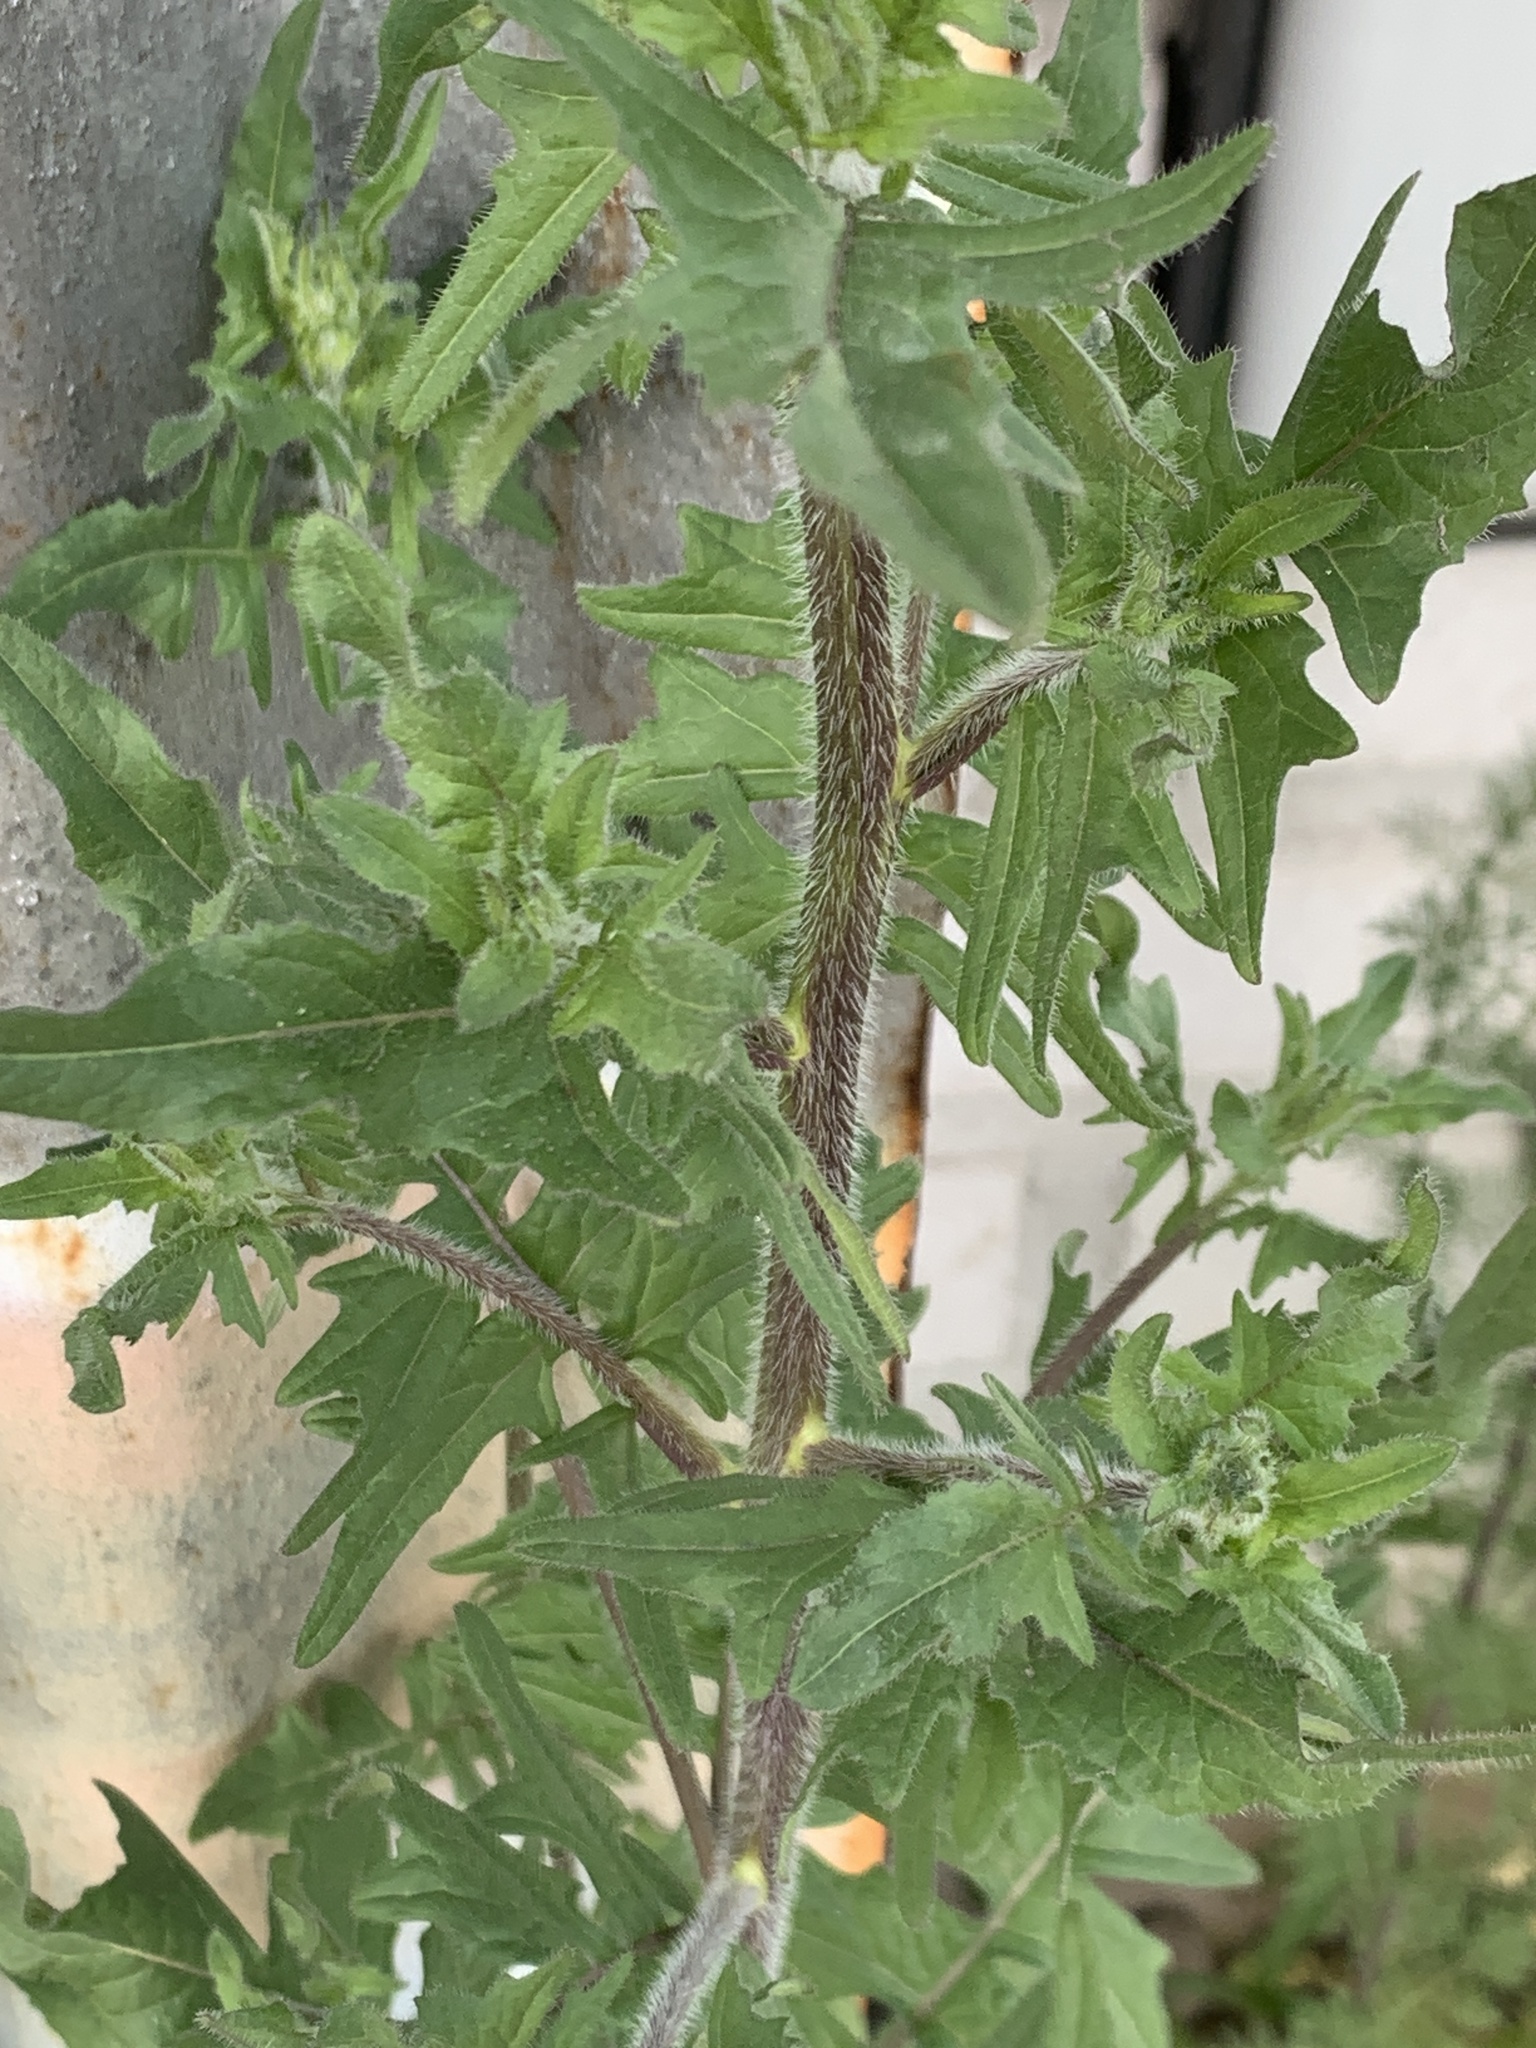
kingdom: Plantae
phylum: Tracheophyta
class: Magnoliopsida
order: Brassicales
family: Brassicaceae
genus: Sisymbrium
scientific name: Sisymbrium loeselii
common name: False london-rocket
